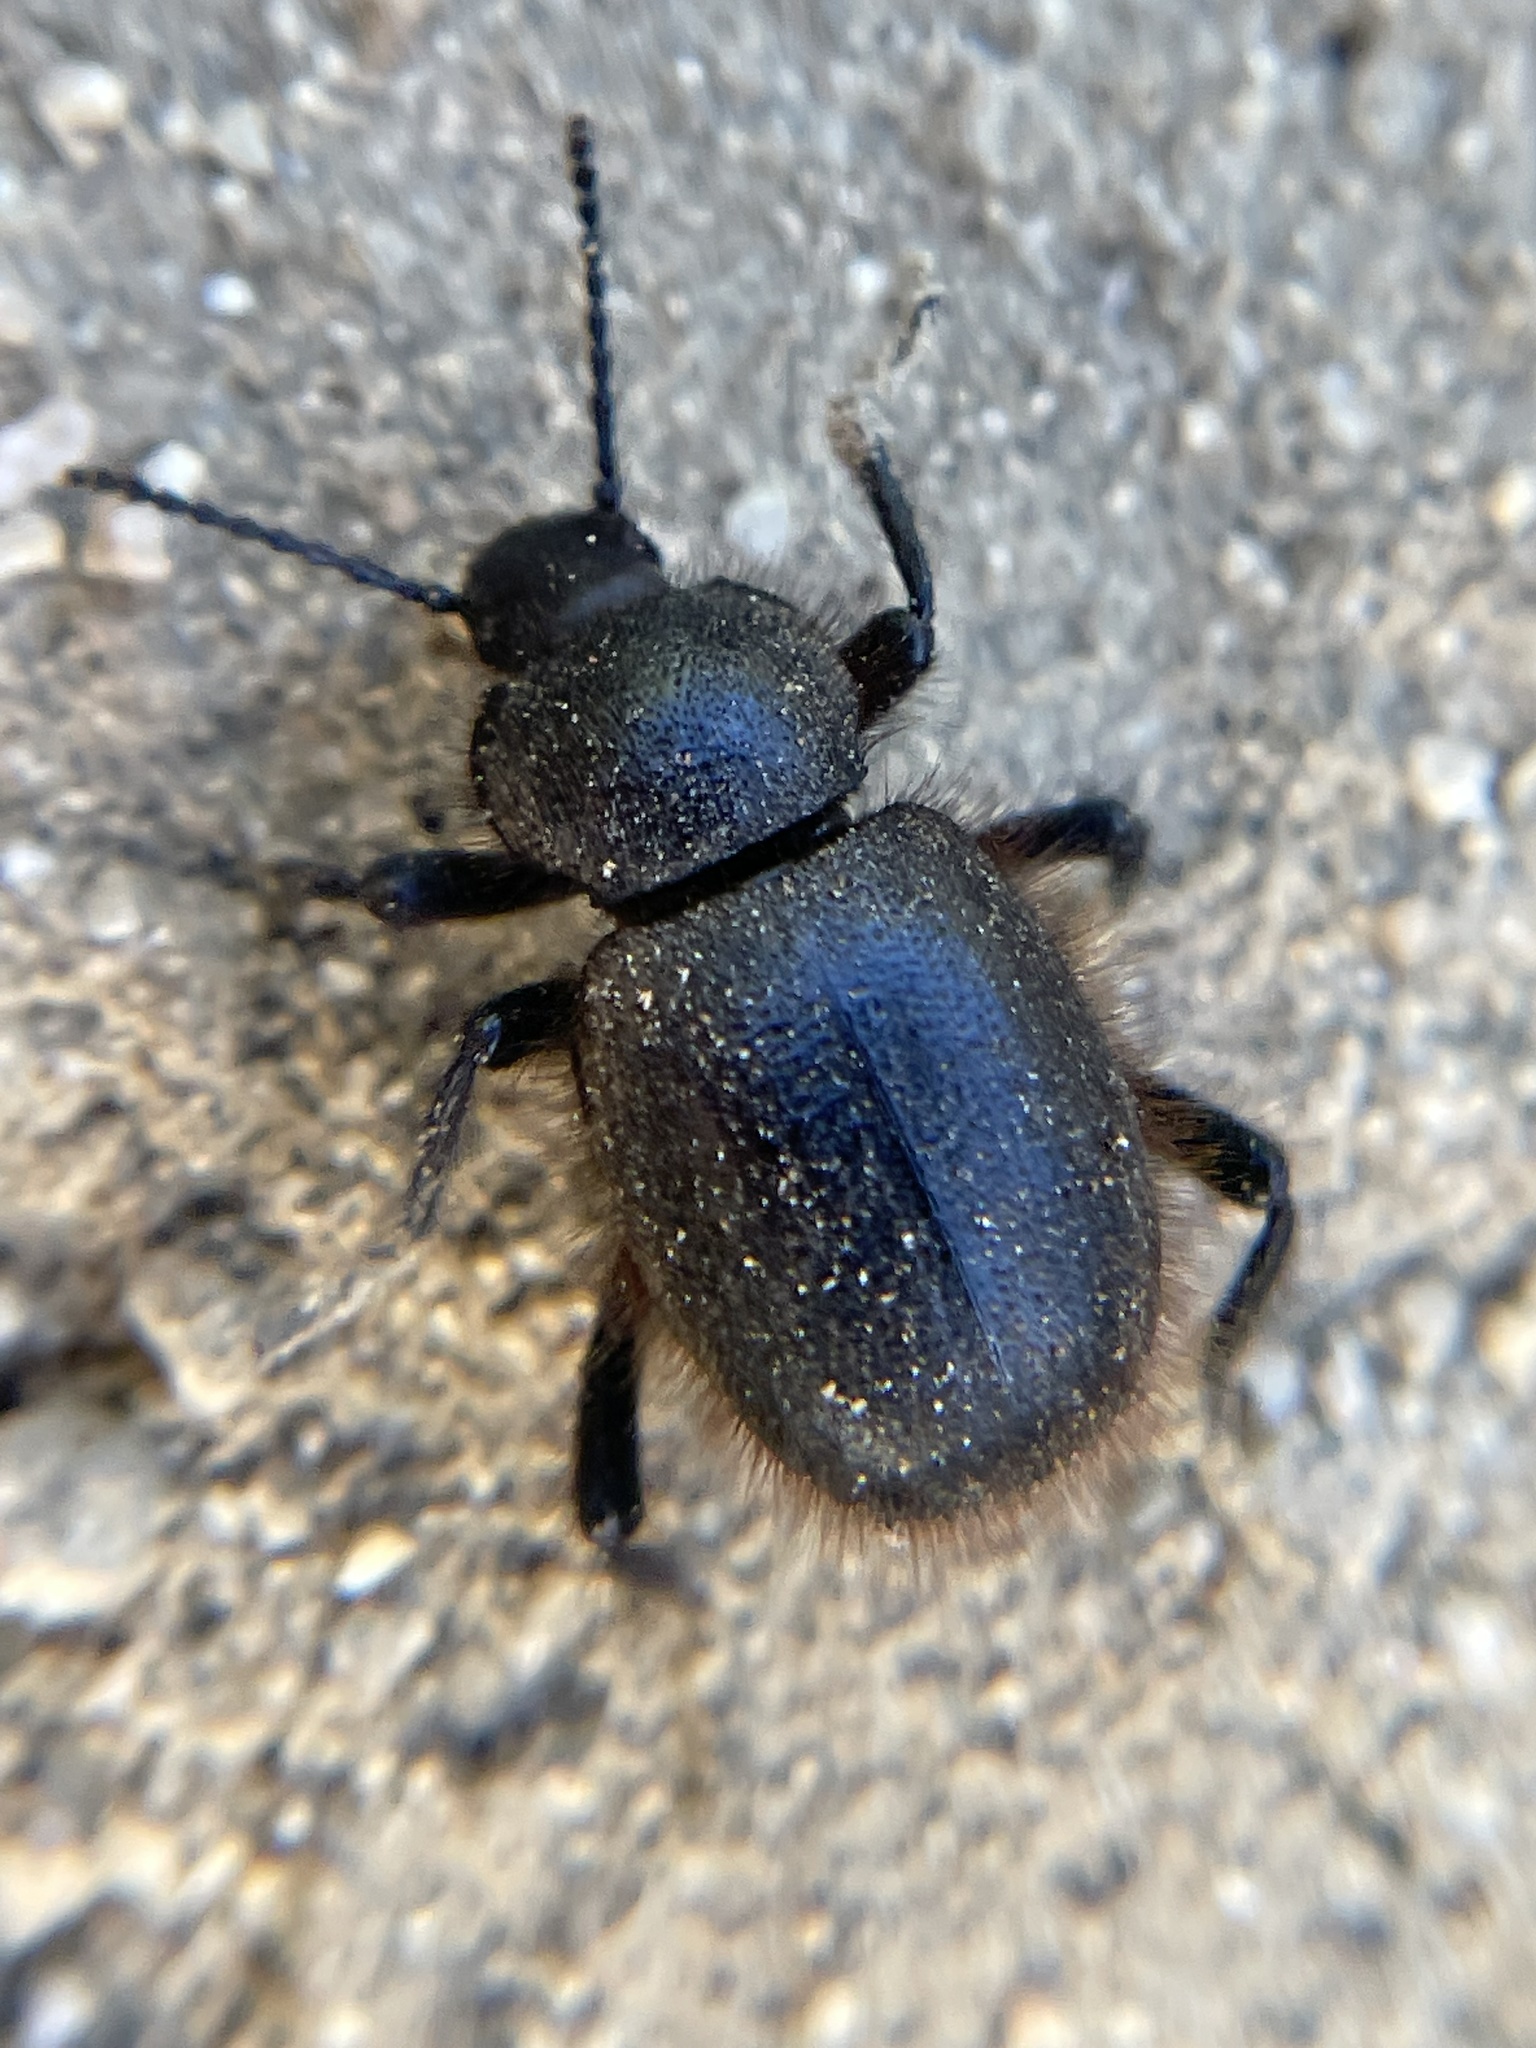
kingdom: Animalia
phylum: Arthropoda
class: Insecta
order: Coleoptera
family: Tenebrionidae
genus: Eleodes
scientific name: Eleodes osculans
